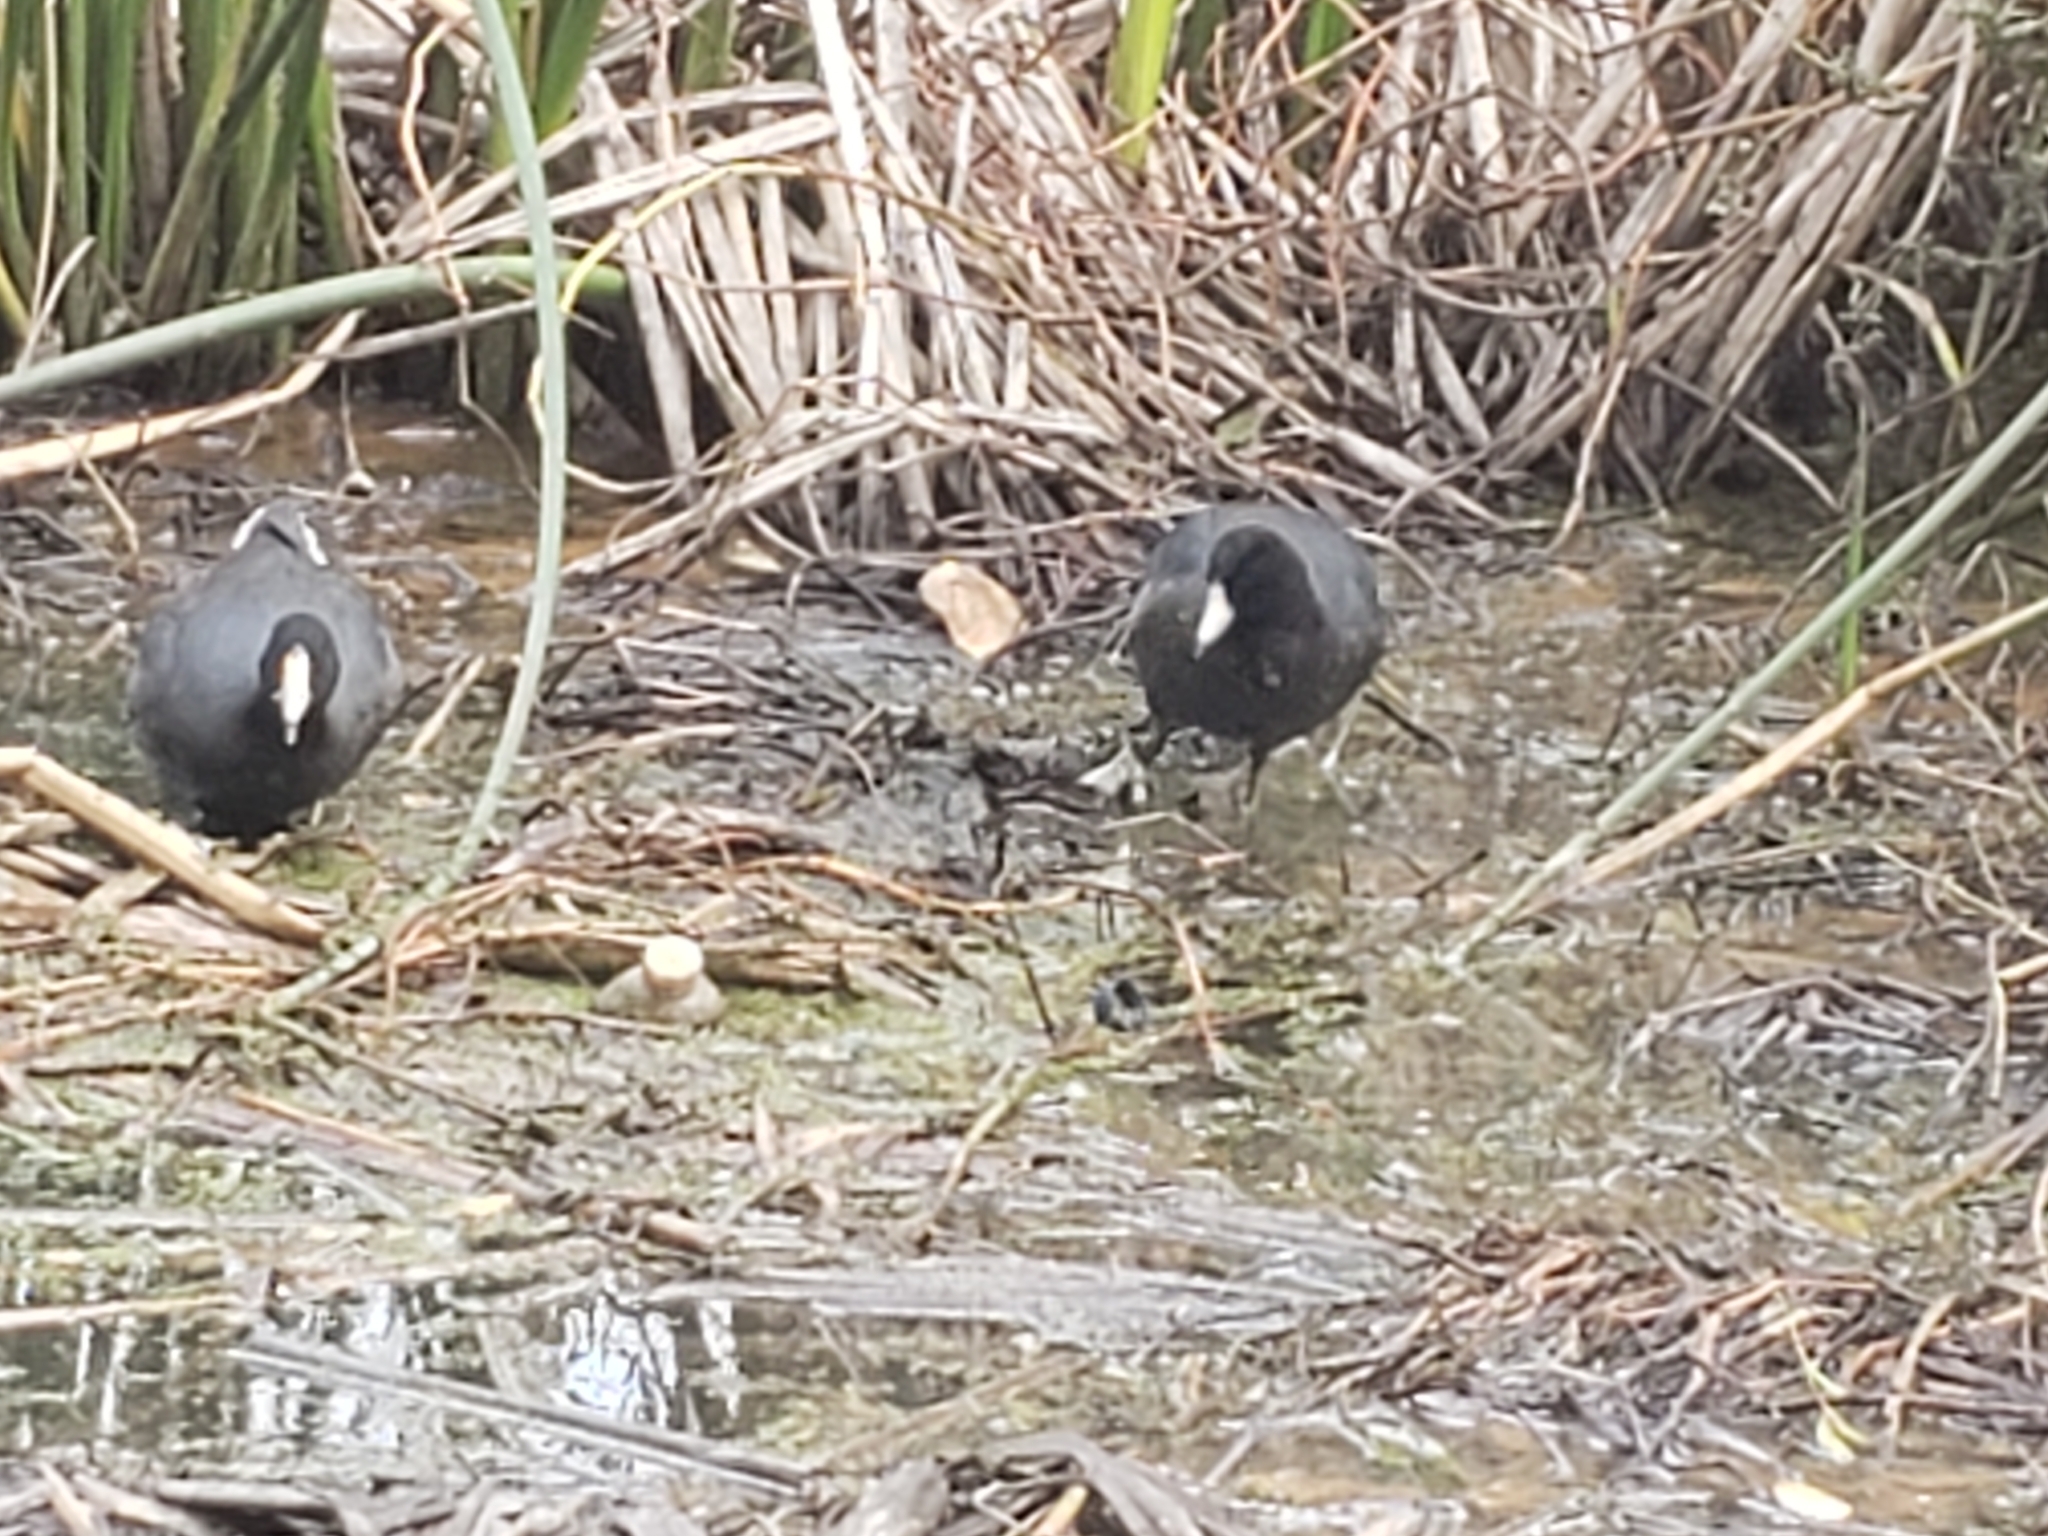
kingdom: Animalia
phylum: Chordata
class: Aves
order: Gruiformes
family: Rallidae
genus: Fulica
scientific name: Fulica americana
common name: American coot
